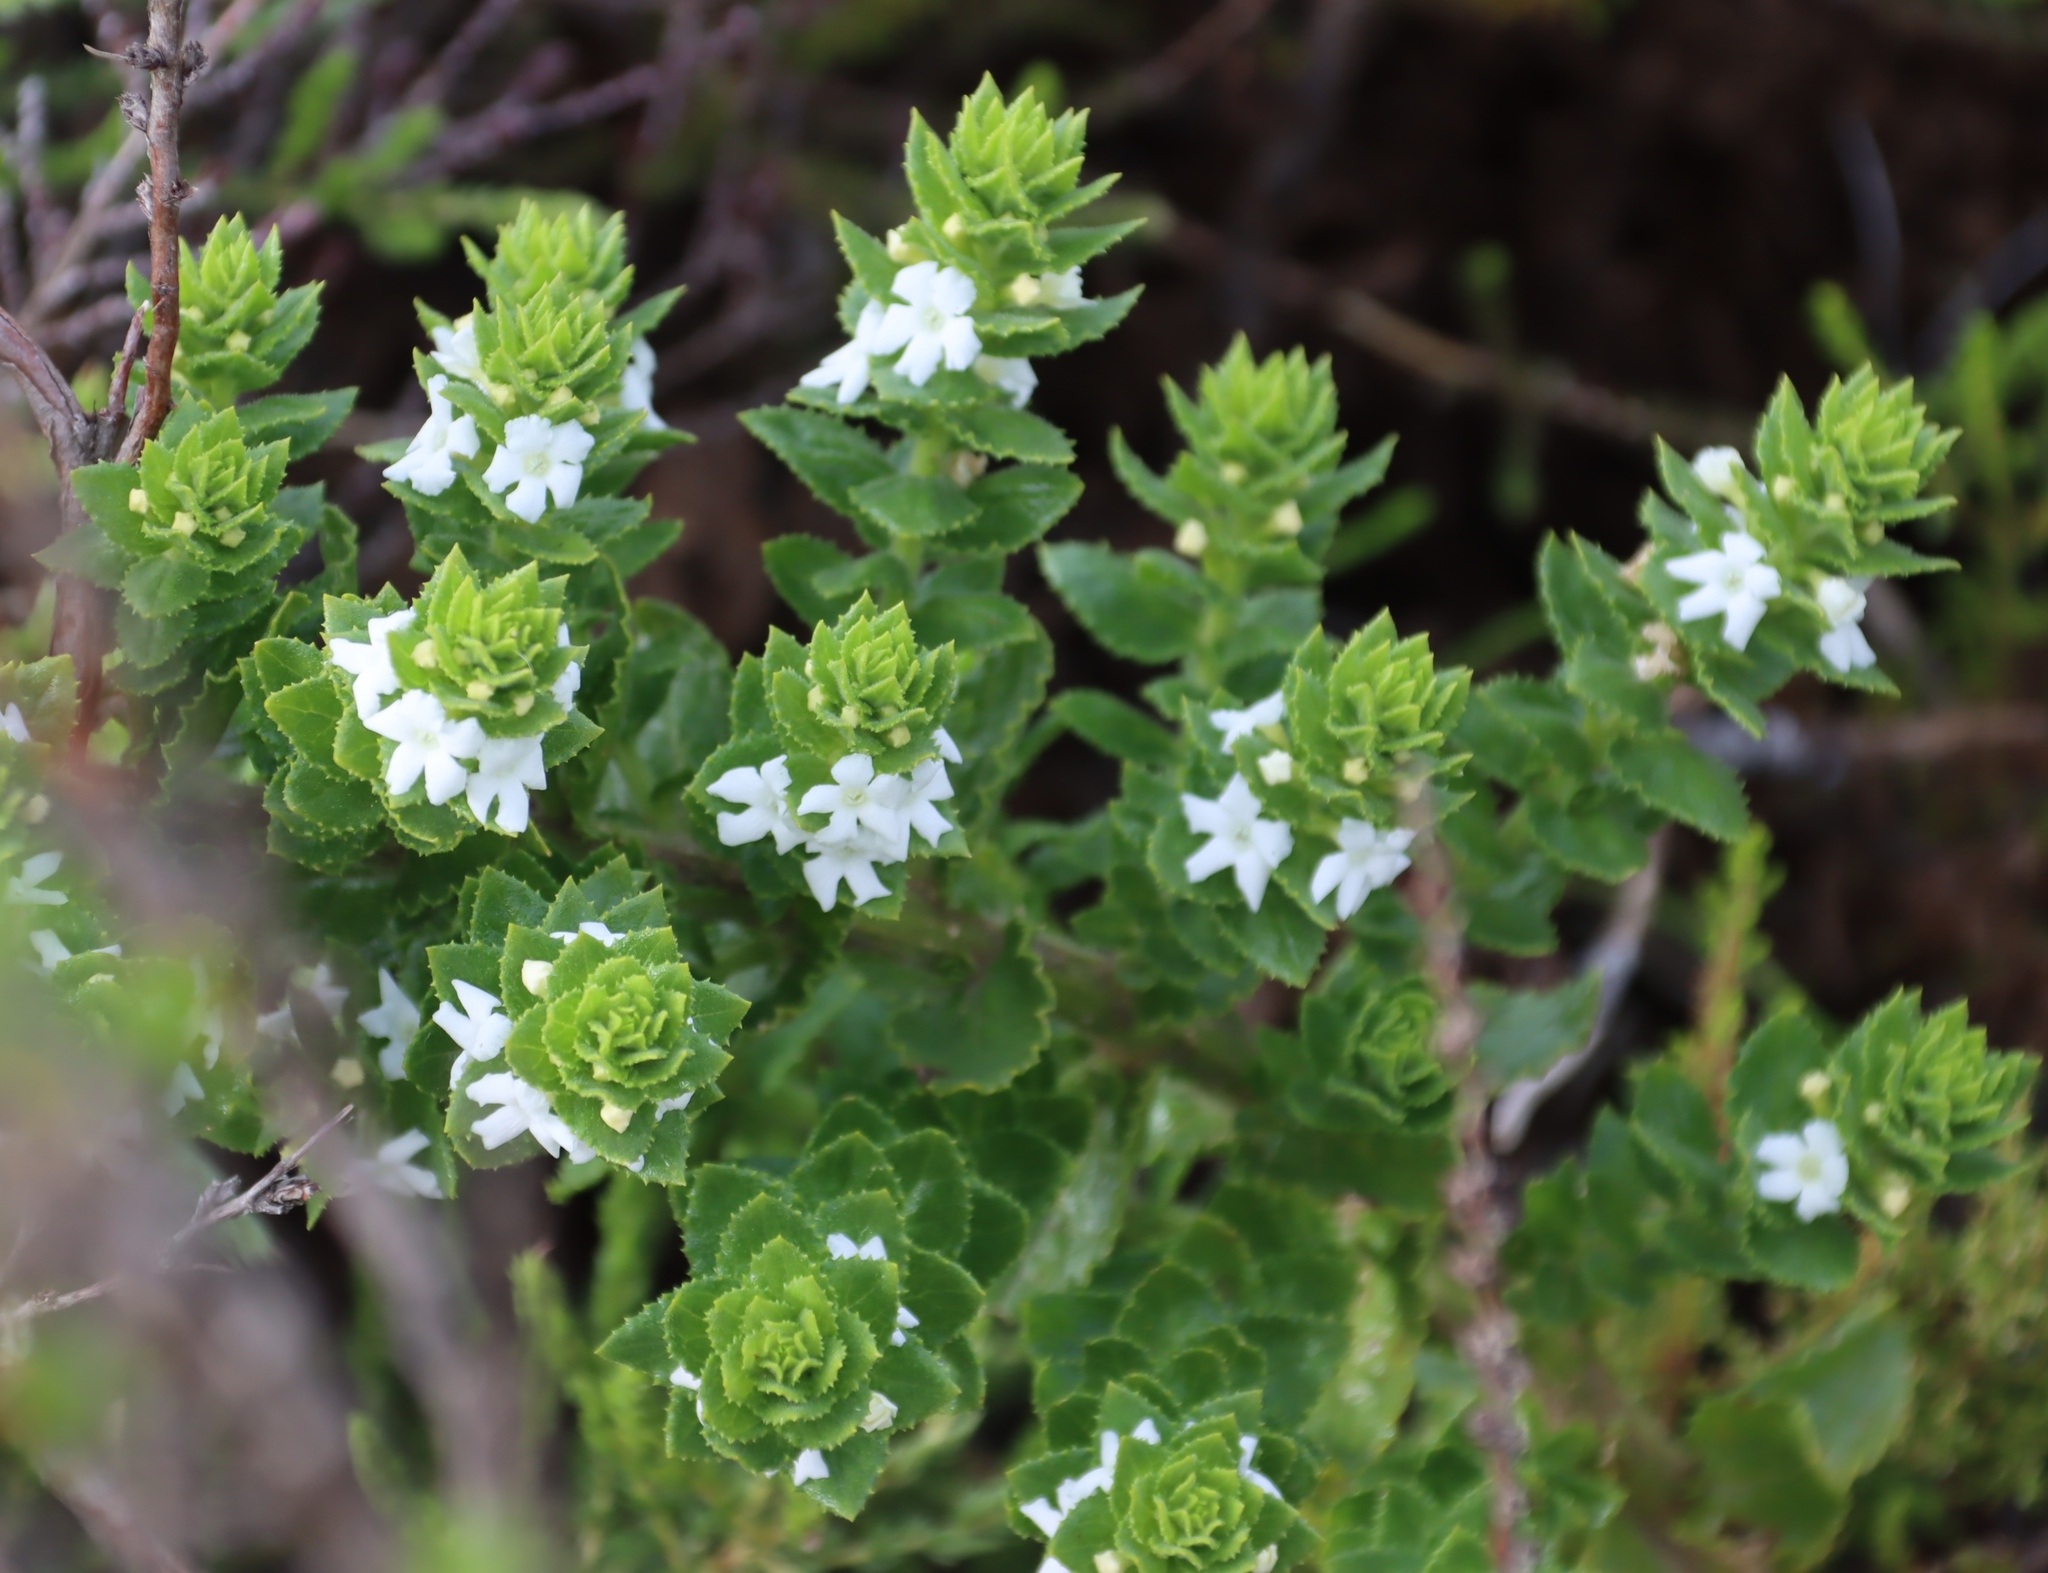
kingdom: Plantae
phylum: Tracheophyta
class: Magnoliopsida
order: Lamiales
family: Scrophulariaceae
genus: Oftia
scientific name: Oftia africana
